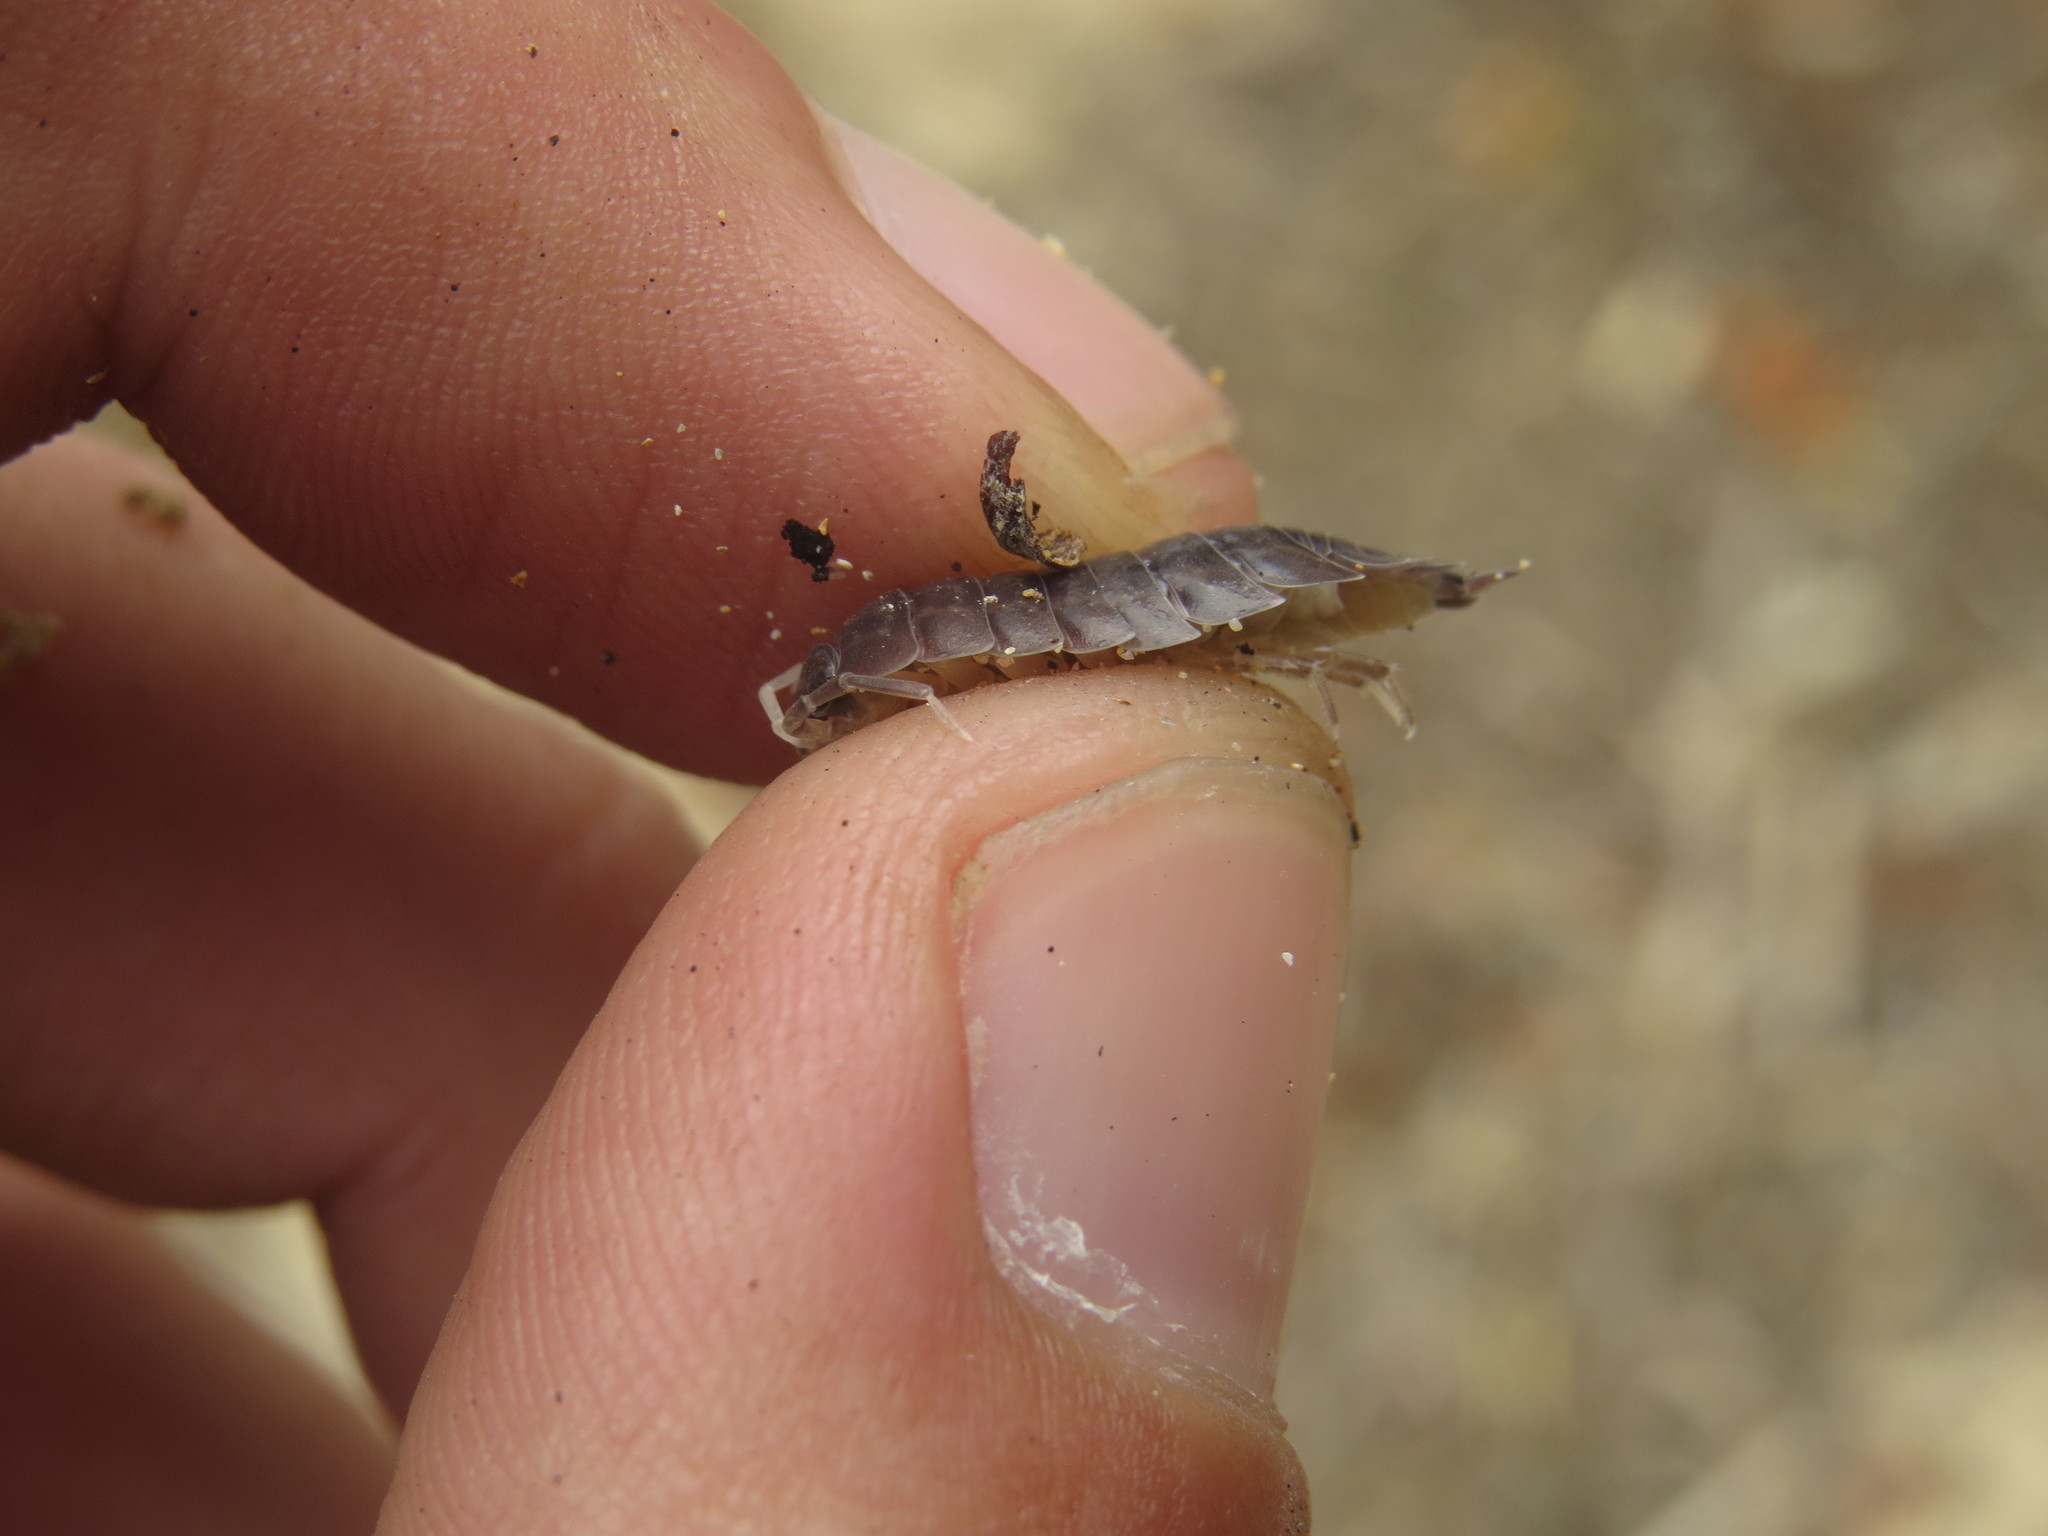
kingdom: Animalia
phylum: Arthropoda
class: Malacostraca
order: Isopoda
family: Porcellionidae
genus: Porcellio
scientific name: Porcellio laevis
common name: Swift woodlouse
